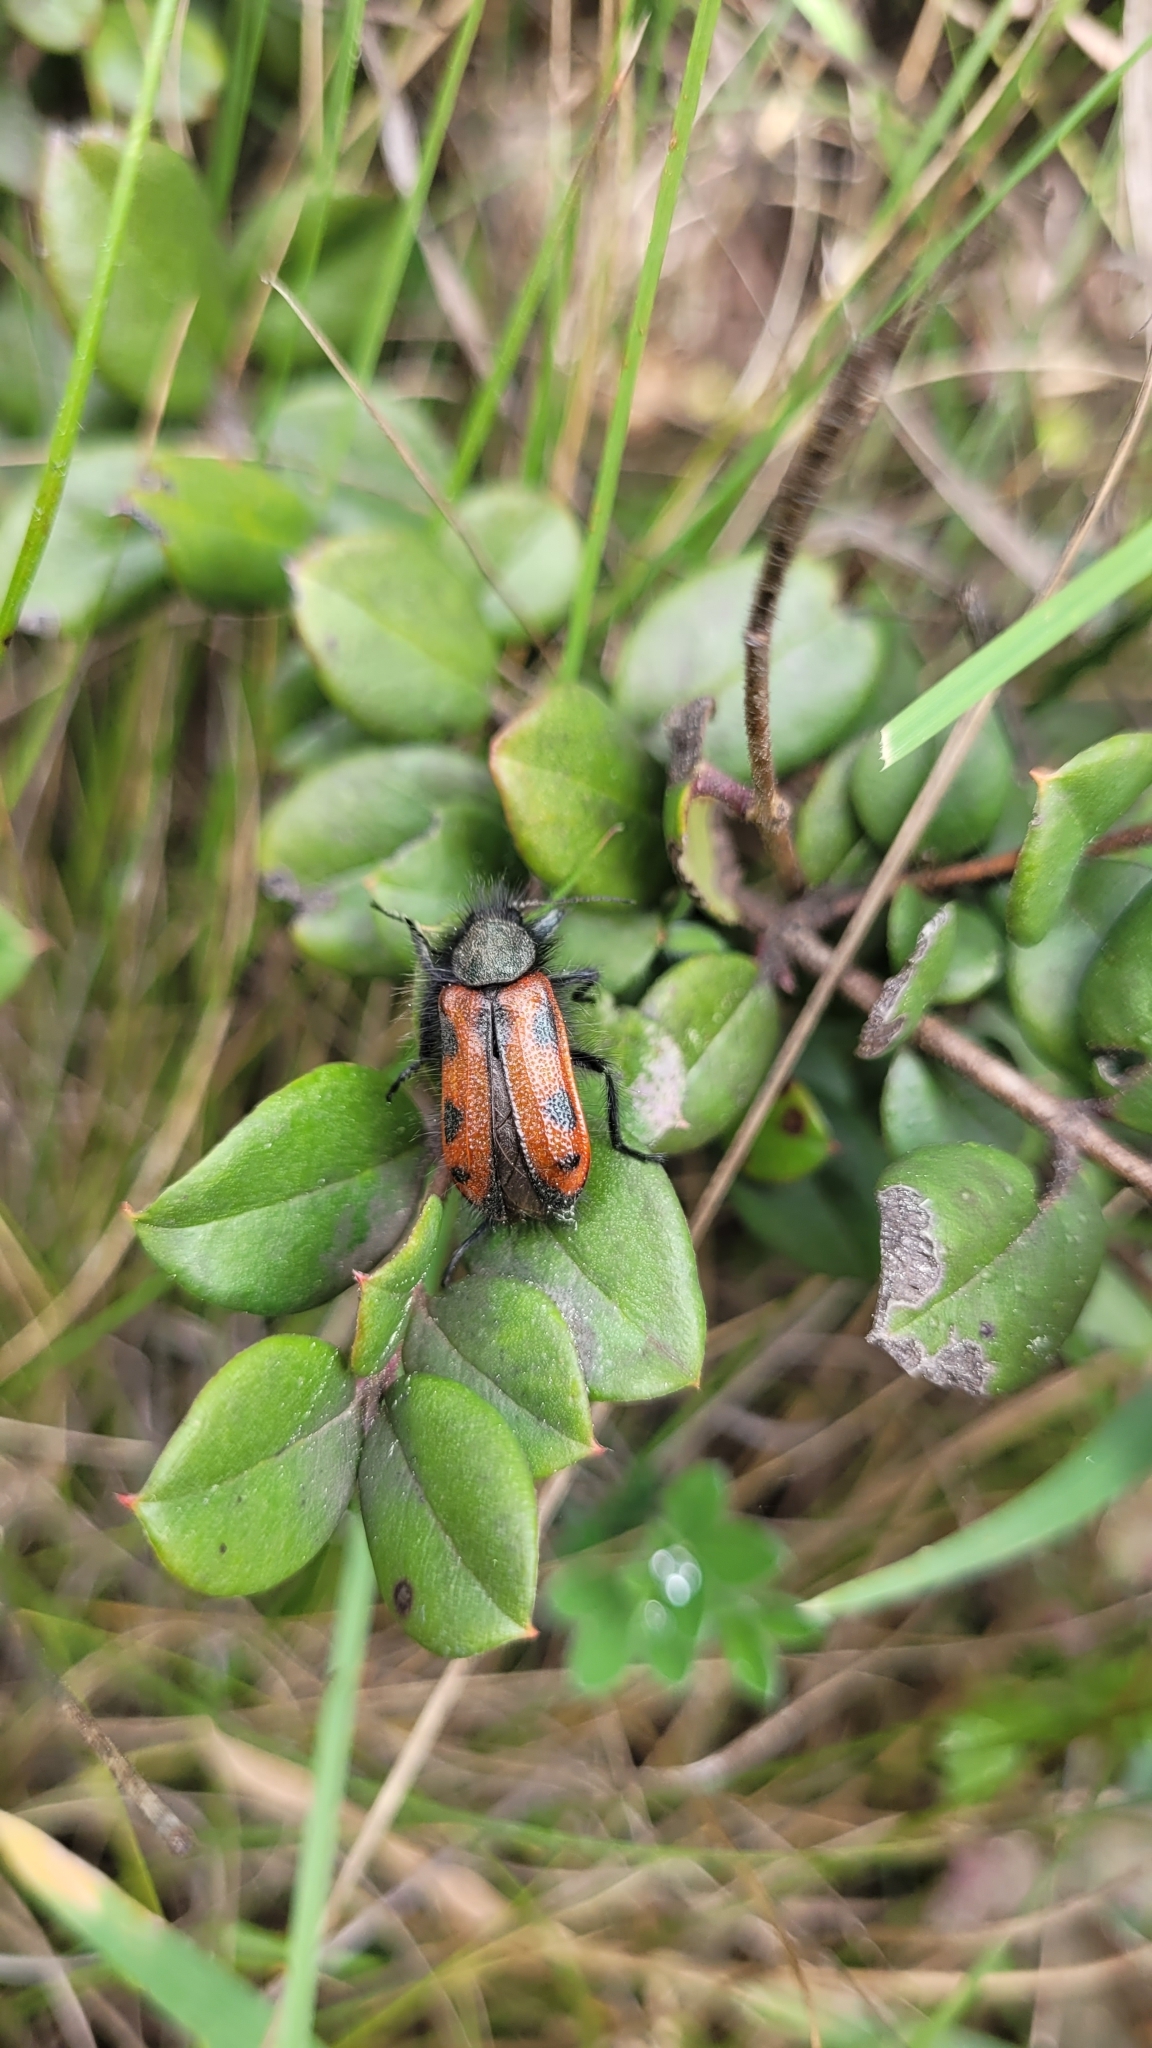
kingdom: Animalia
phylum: Arthropoda
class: Insecta
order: Coleoptera
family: Melyridae
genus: Astylus
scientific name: Astylus
